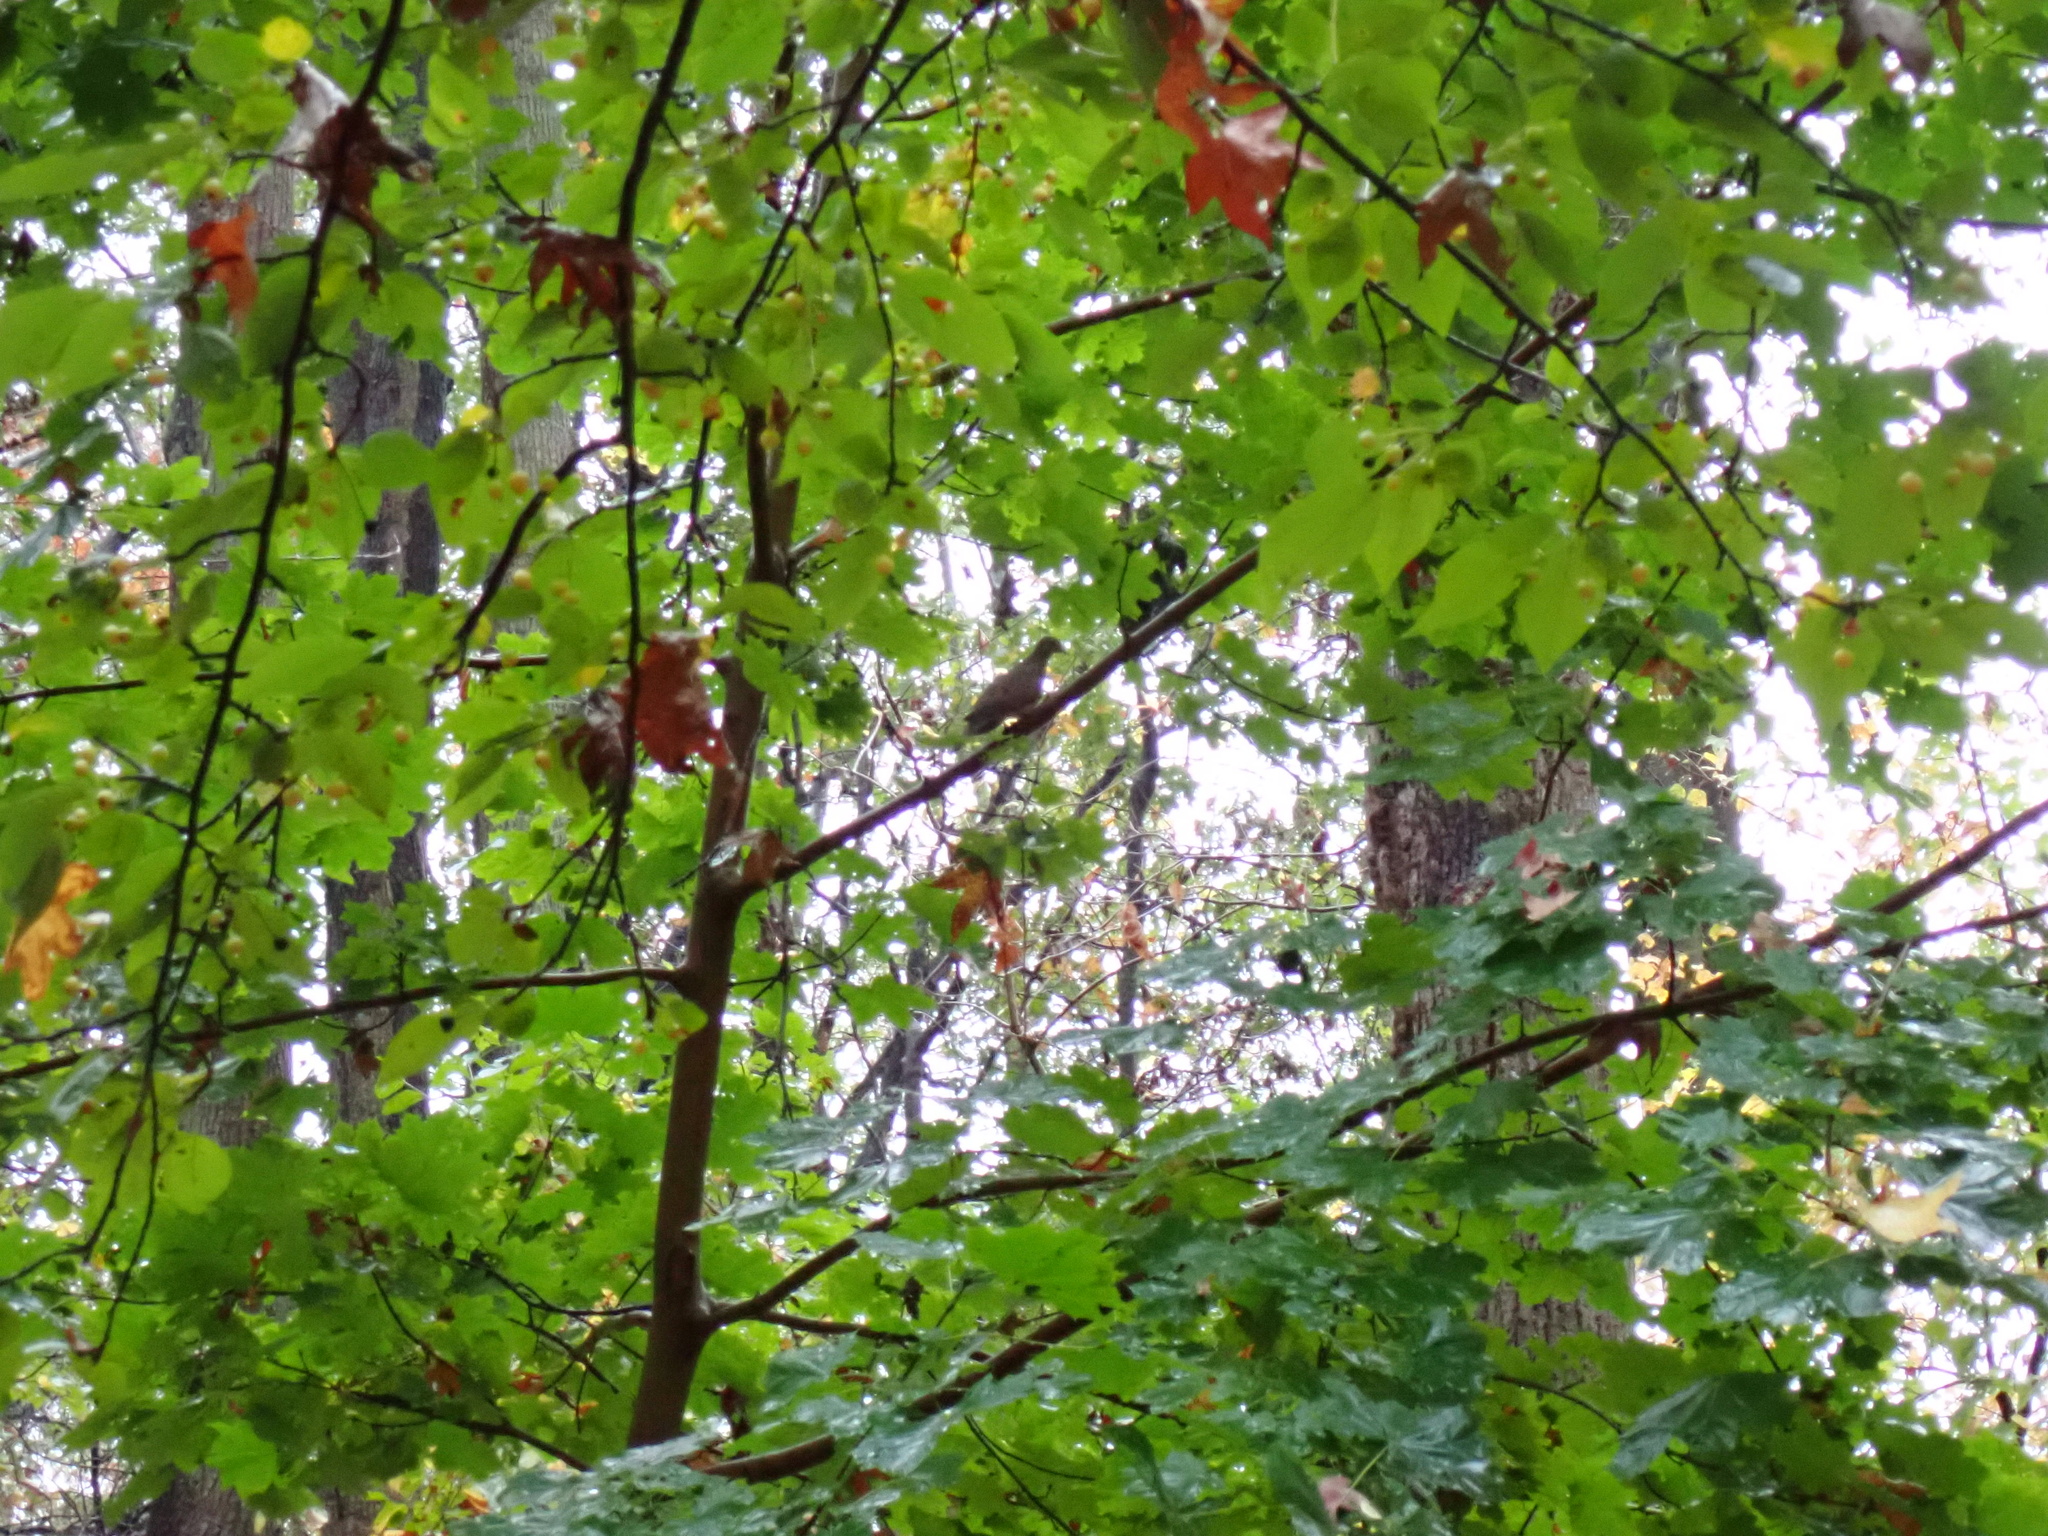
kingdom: Animalia
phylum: Chordata
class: Aves
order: Columbiformes
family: Columbidae
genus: Zenaida
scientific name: Zenaida macroura
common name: Mourning dove
